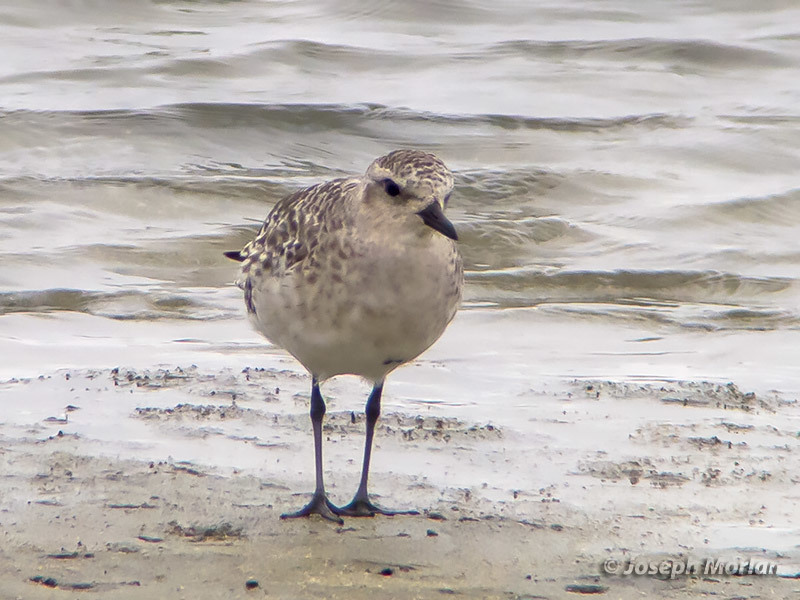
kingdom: Animalia
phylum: Chordata
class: Aves
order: Charadriiformes
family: Charadriidae
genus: Pluvialis
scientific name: Pluvialis squatarola
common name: Grey plover
